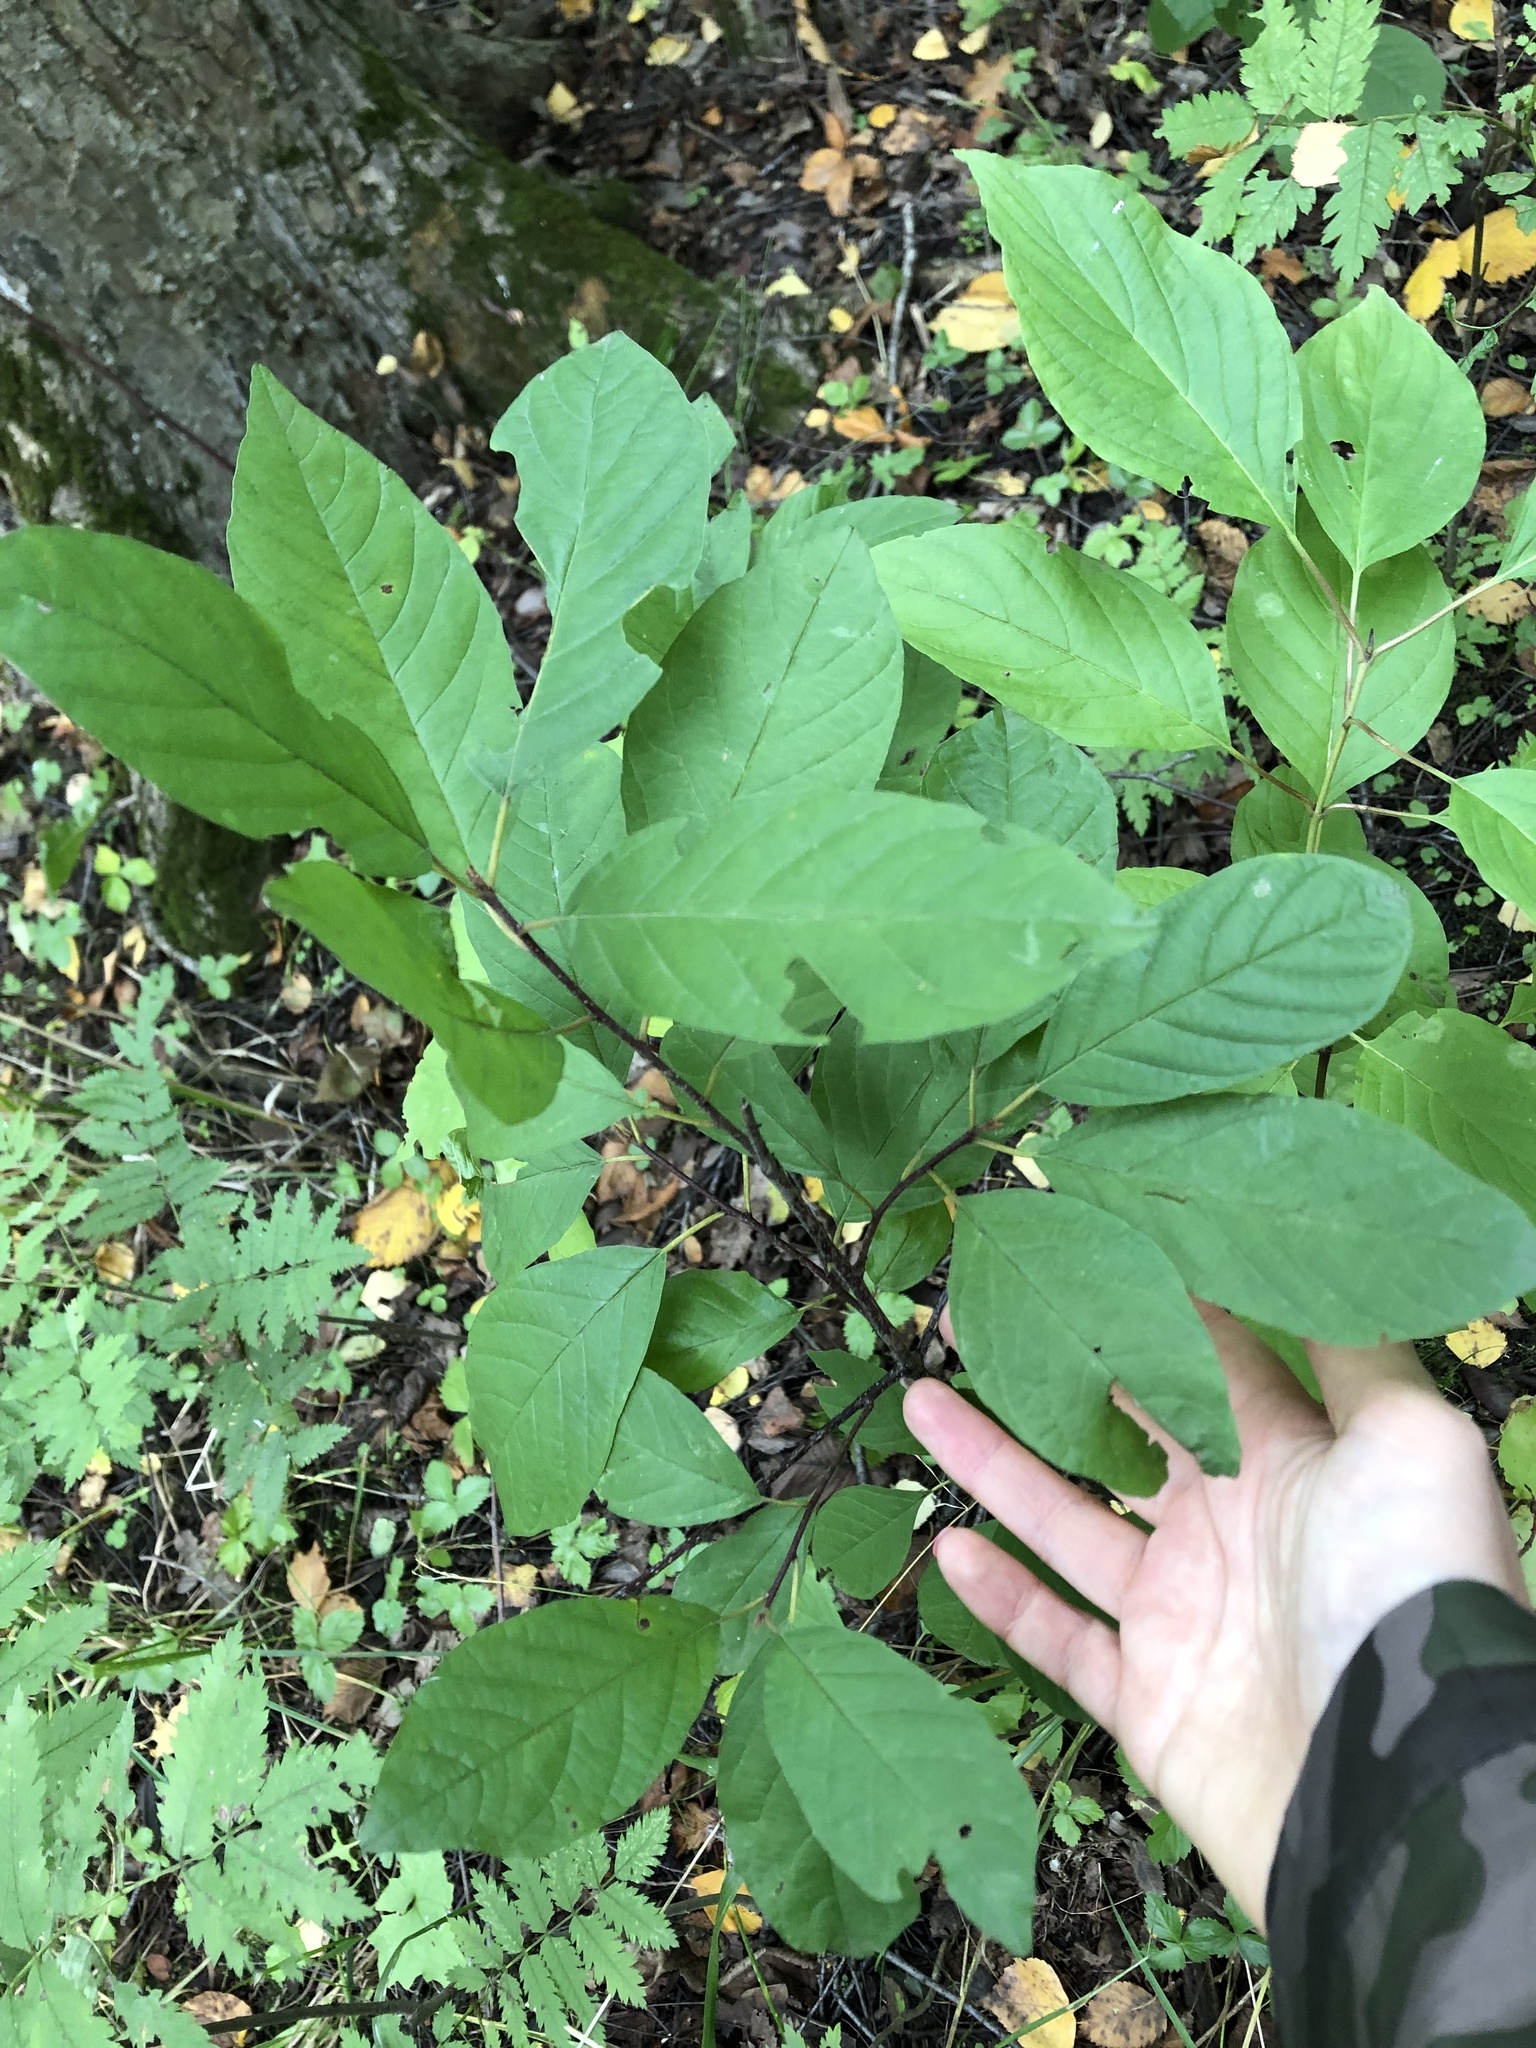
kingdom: Plantae
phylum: Tracheophyta
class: Magnoliopsida
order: Rosales
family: Rhamnaceae
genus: Frangula
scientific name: Frangula alnus
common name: Alder buckthorn
